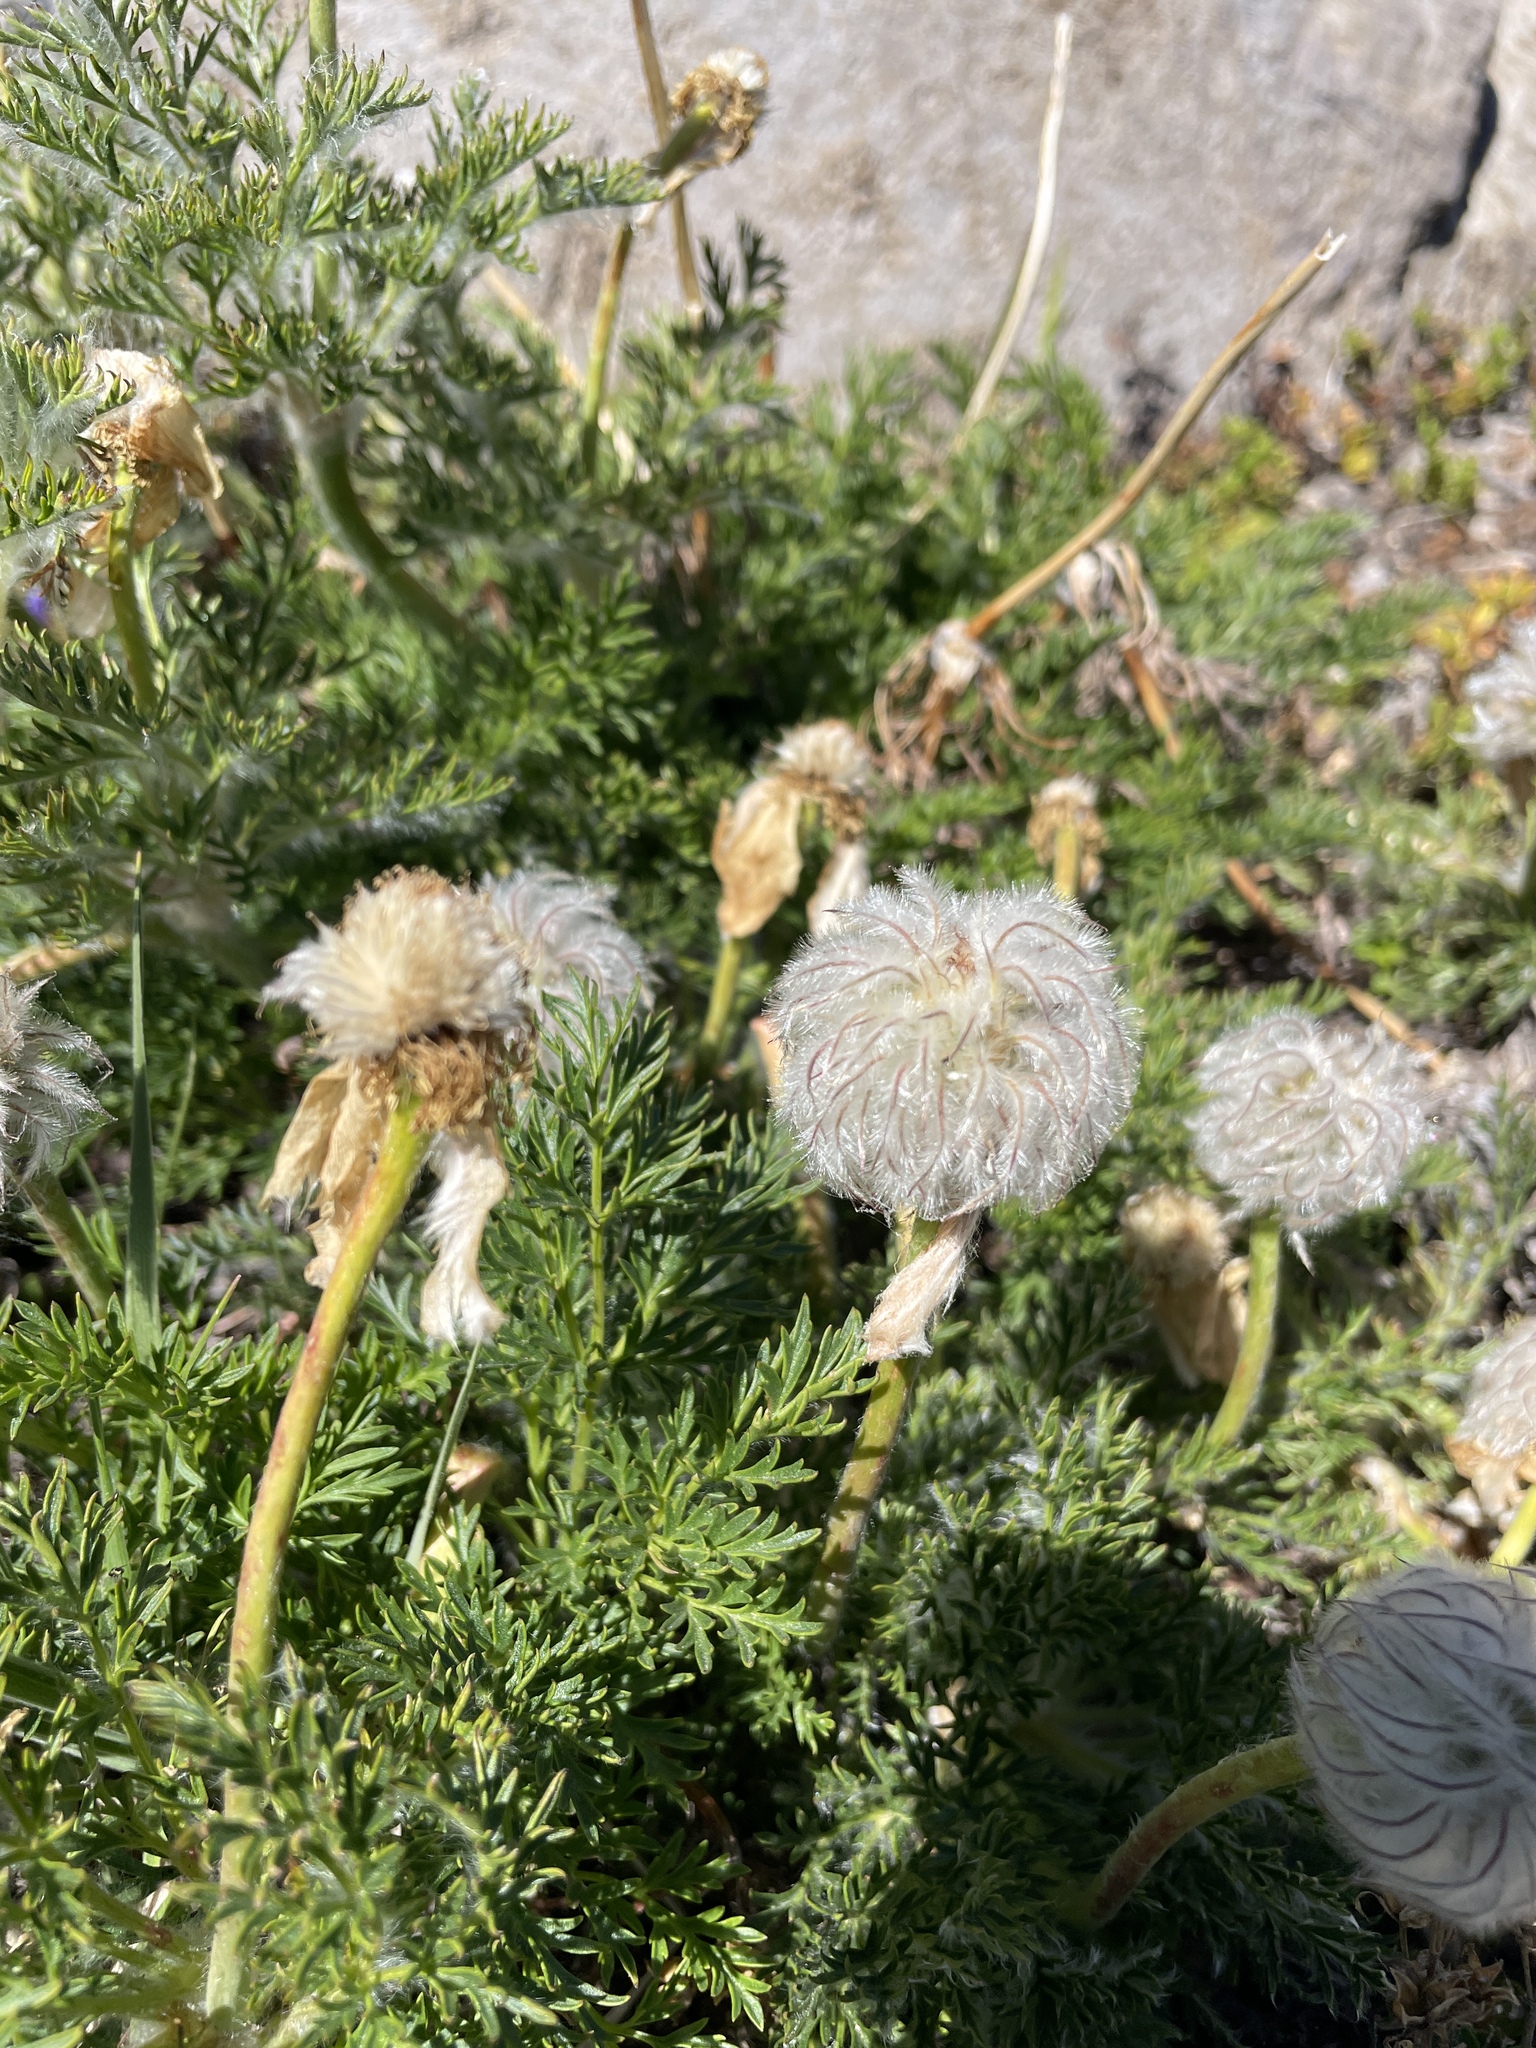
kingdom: Plantae
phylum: Tracheophyta
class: Magnoliopsida
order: Ranunculales
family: Ranunculaceae
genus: Pulsatilla
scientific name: Pulsatilla occidentalis
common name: Mountain pasqueflower
